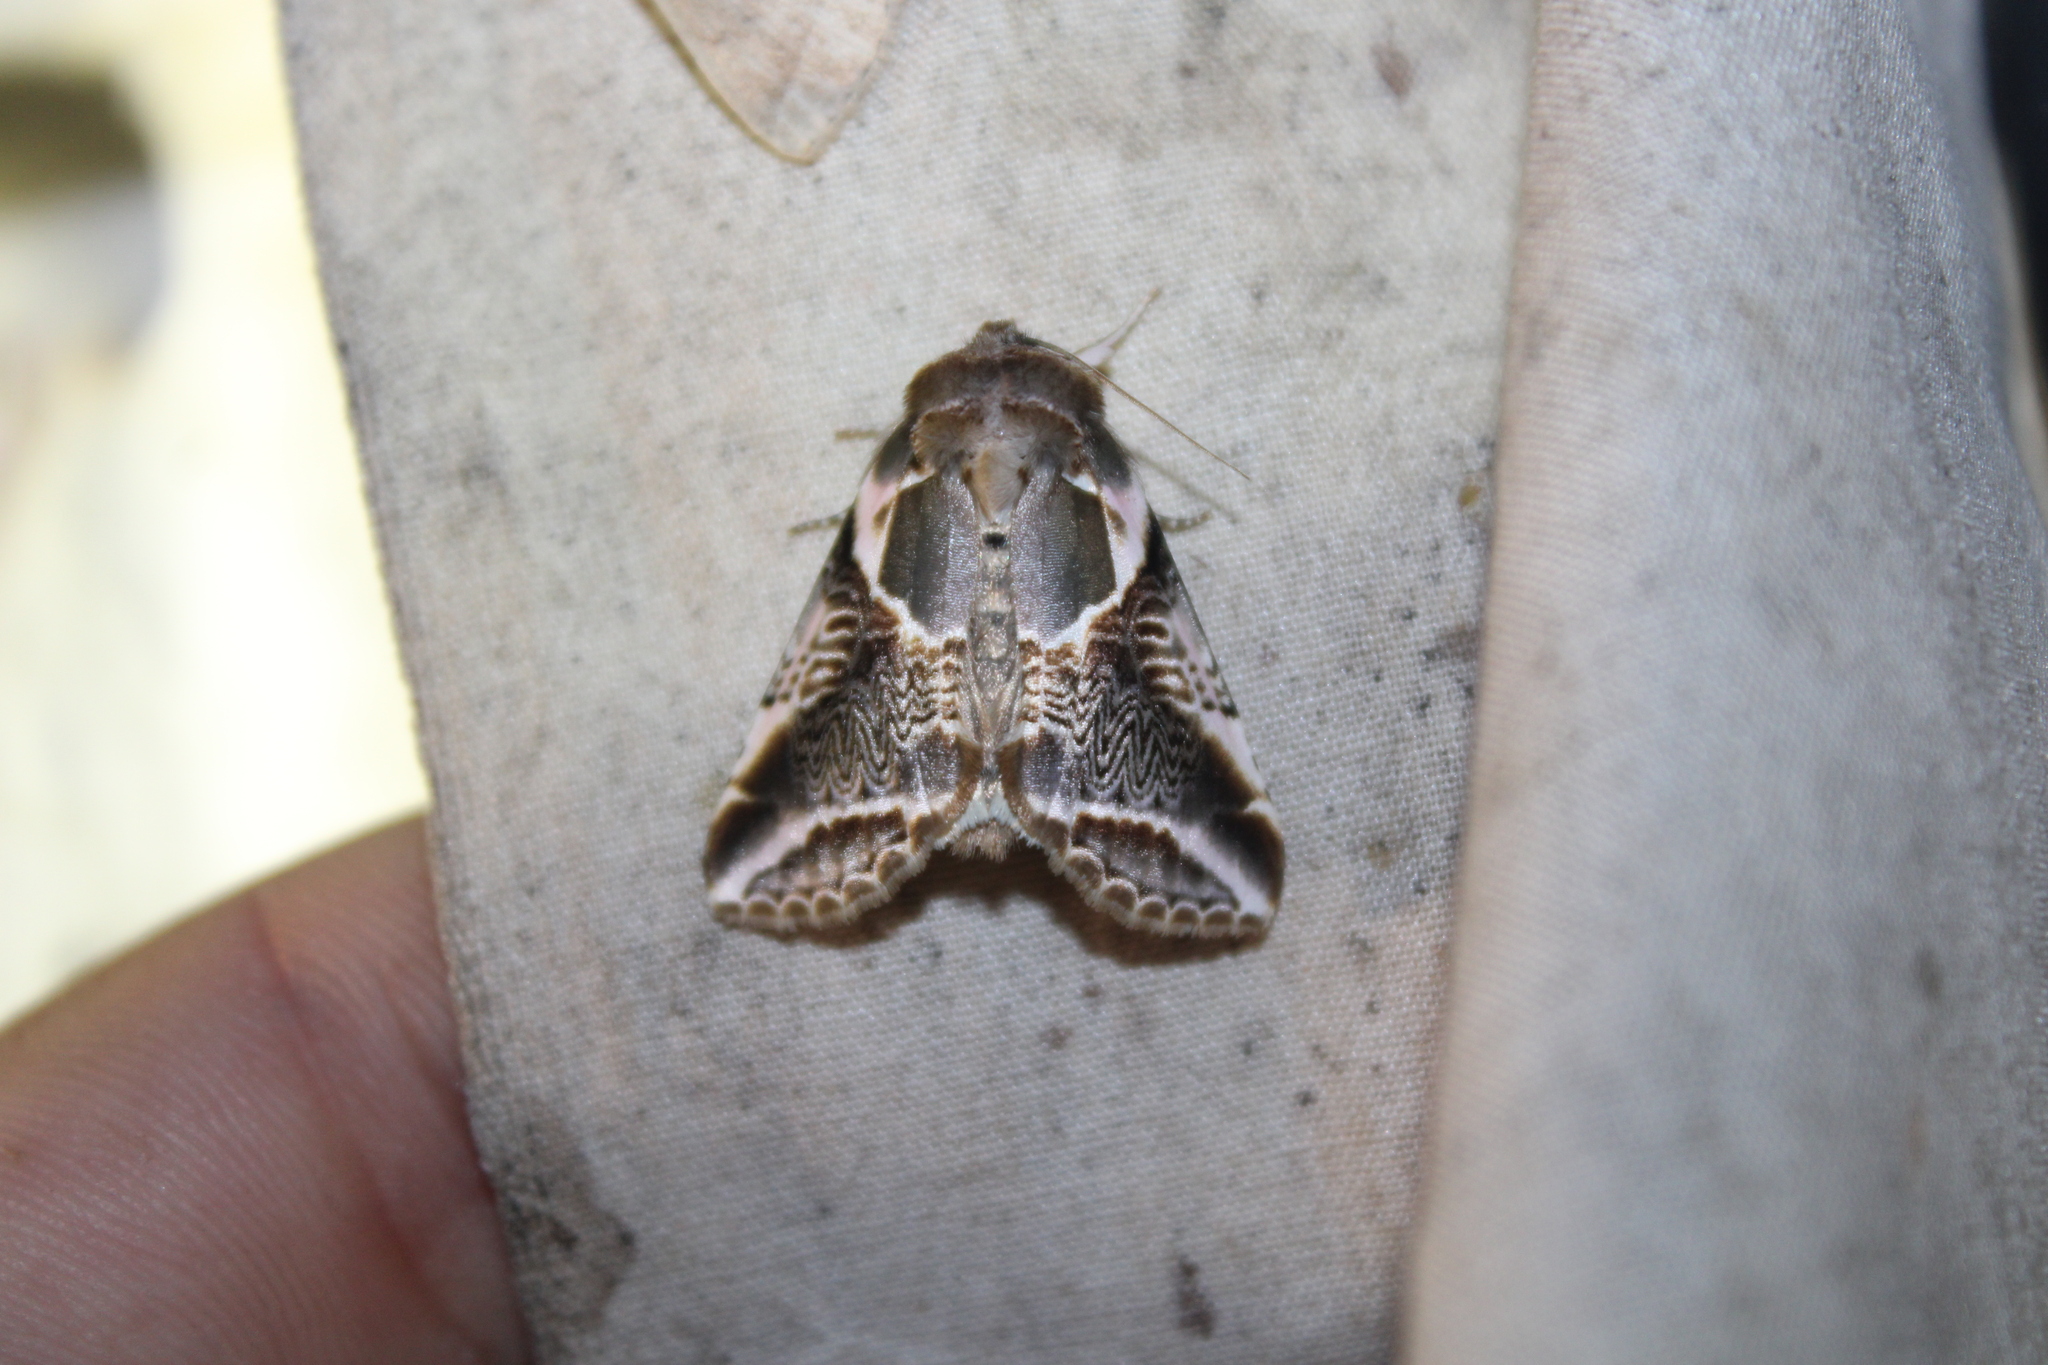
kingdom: Animalia
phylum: Arthropoda
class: Insecta
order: Lepidoptera
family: Drepanidae
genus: Habrosyne
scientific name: Habrosyne scripta
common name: Lettered habrosyne moth
